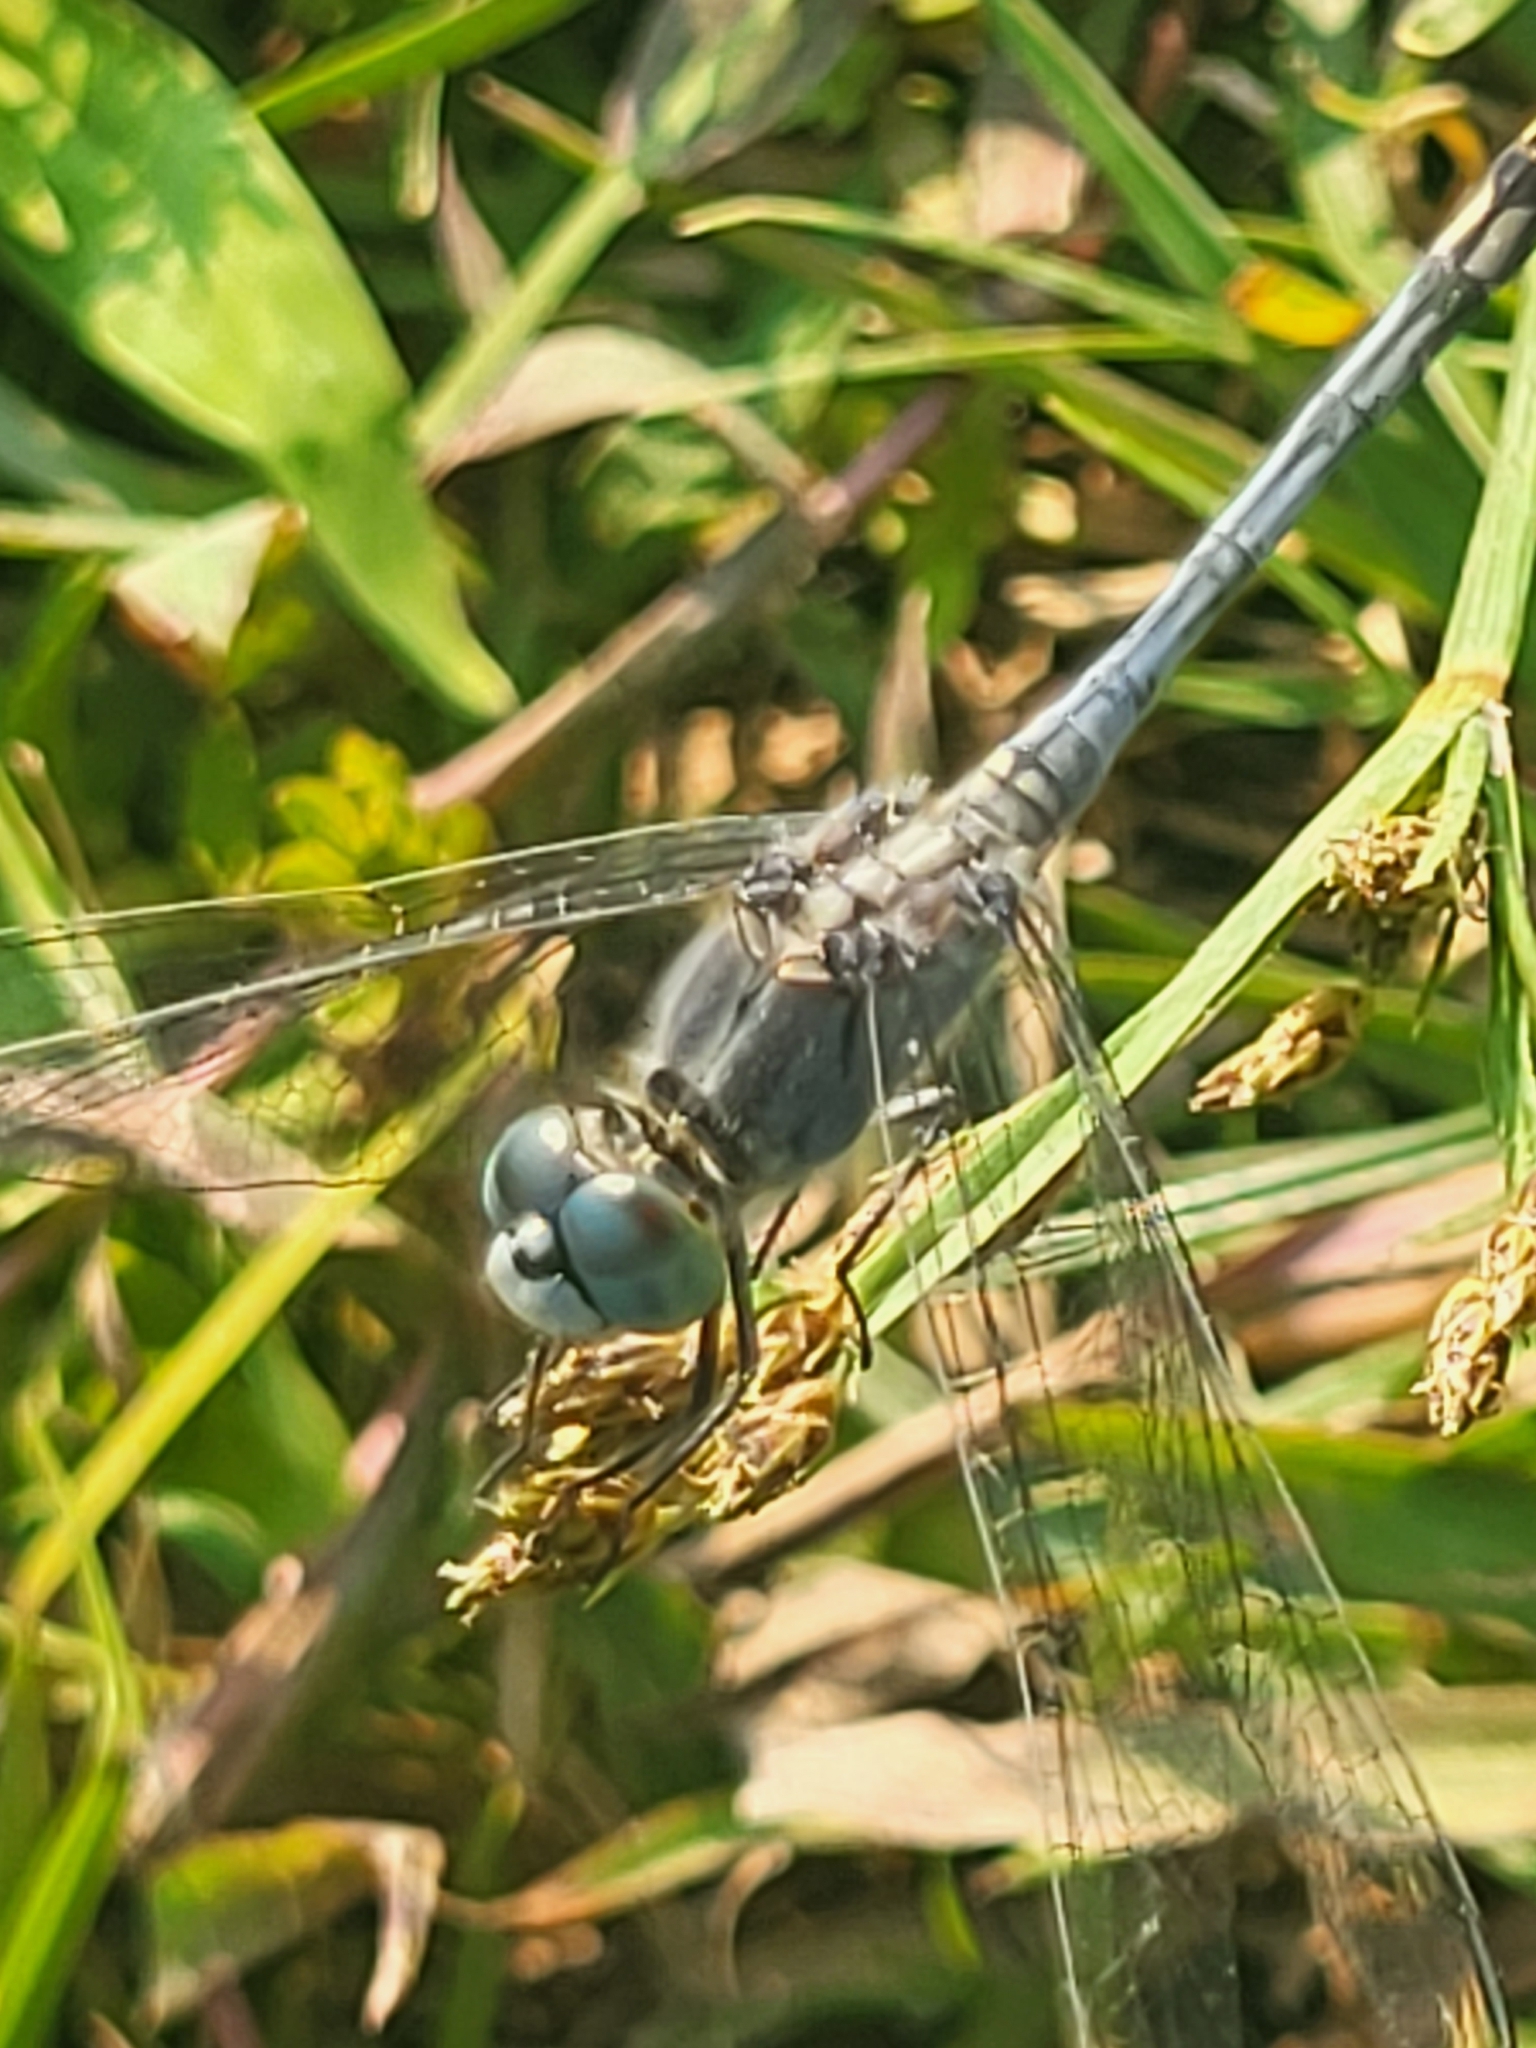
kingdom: Animalia
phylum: Arthropoda
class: Insecta
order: Odonata
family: Libellulidae
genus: Diplacodes
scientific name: Diplacodes trivialis
